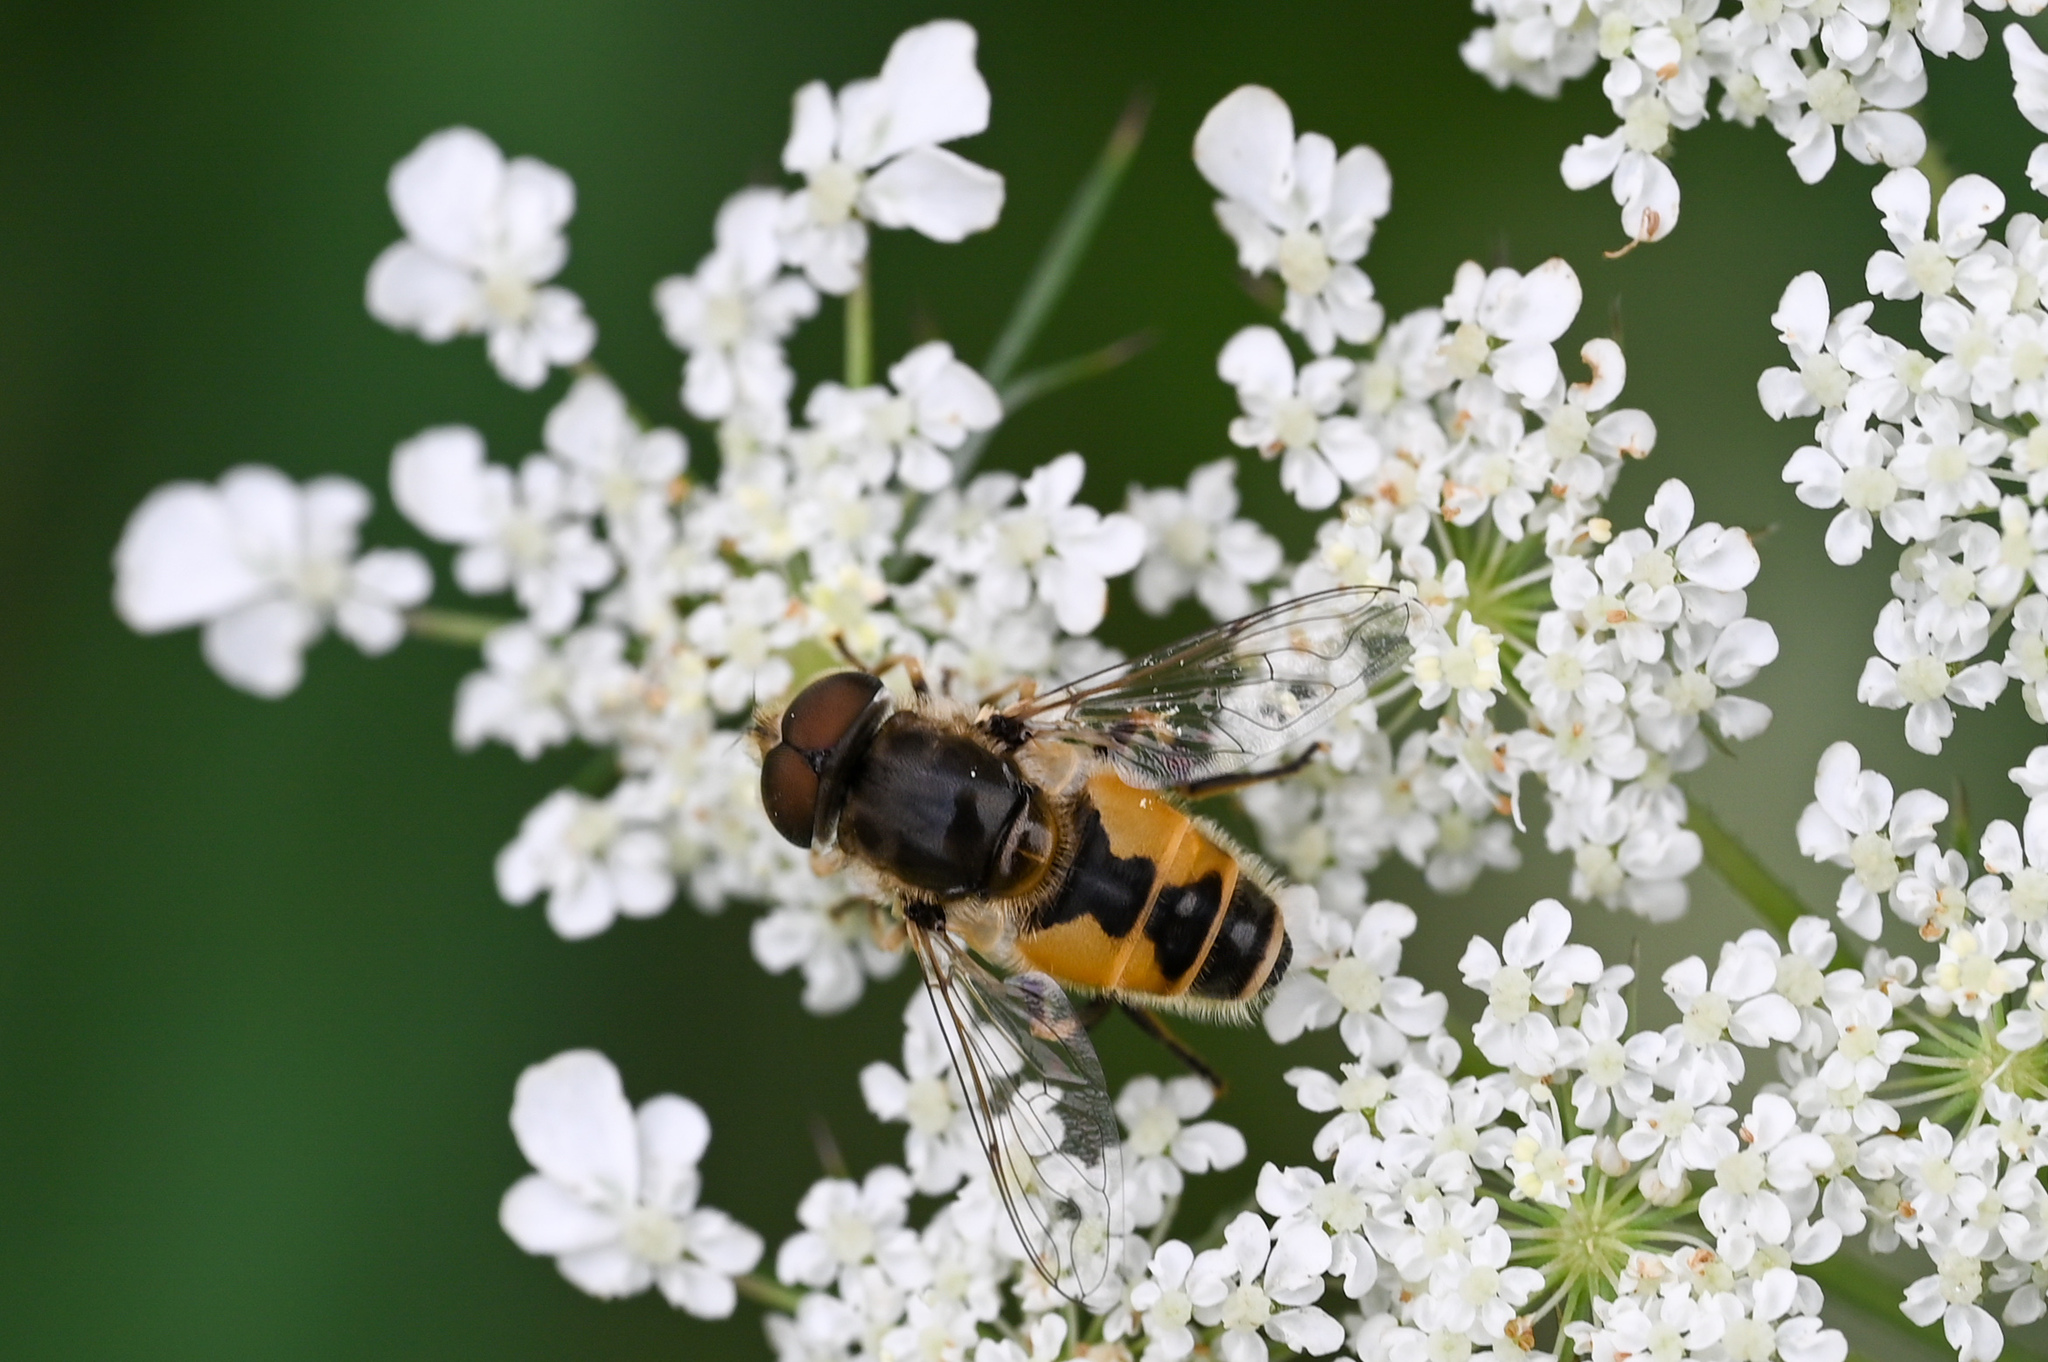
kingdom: Animalia
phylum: Arthropoda
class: Insecta
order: Diptera
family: Syrphidae
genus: Eristalis
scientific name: Eristalis arbustorum
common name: Hover fly
